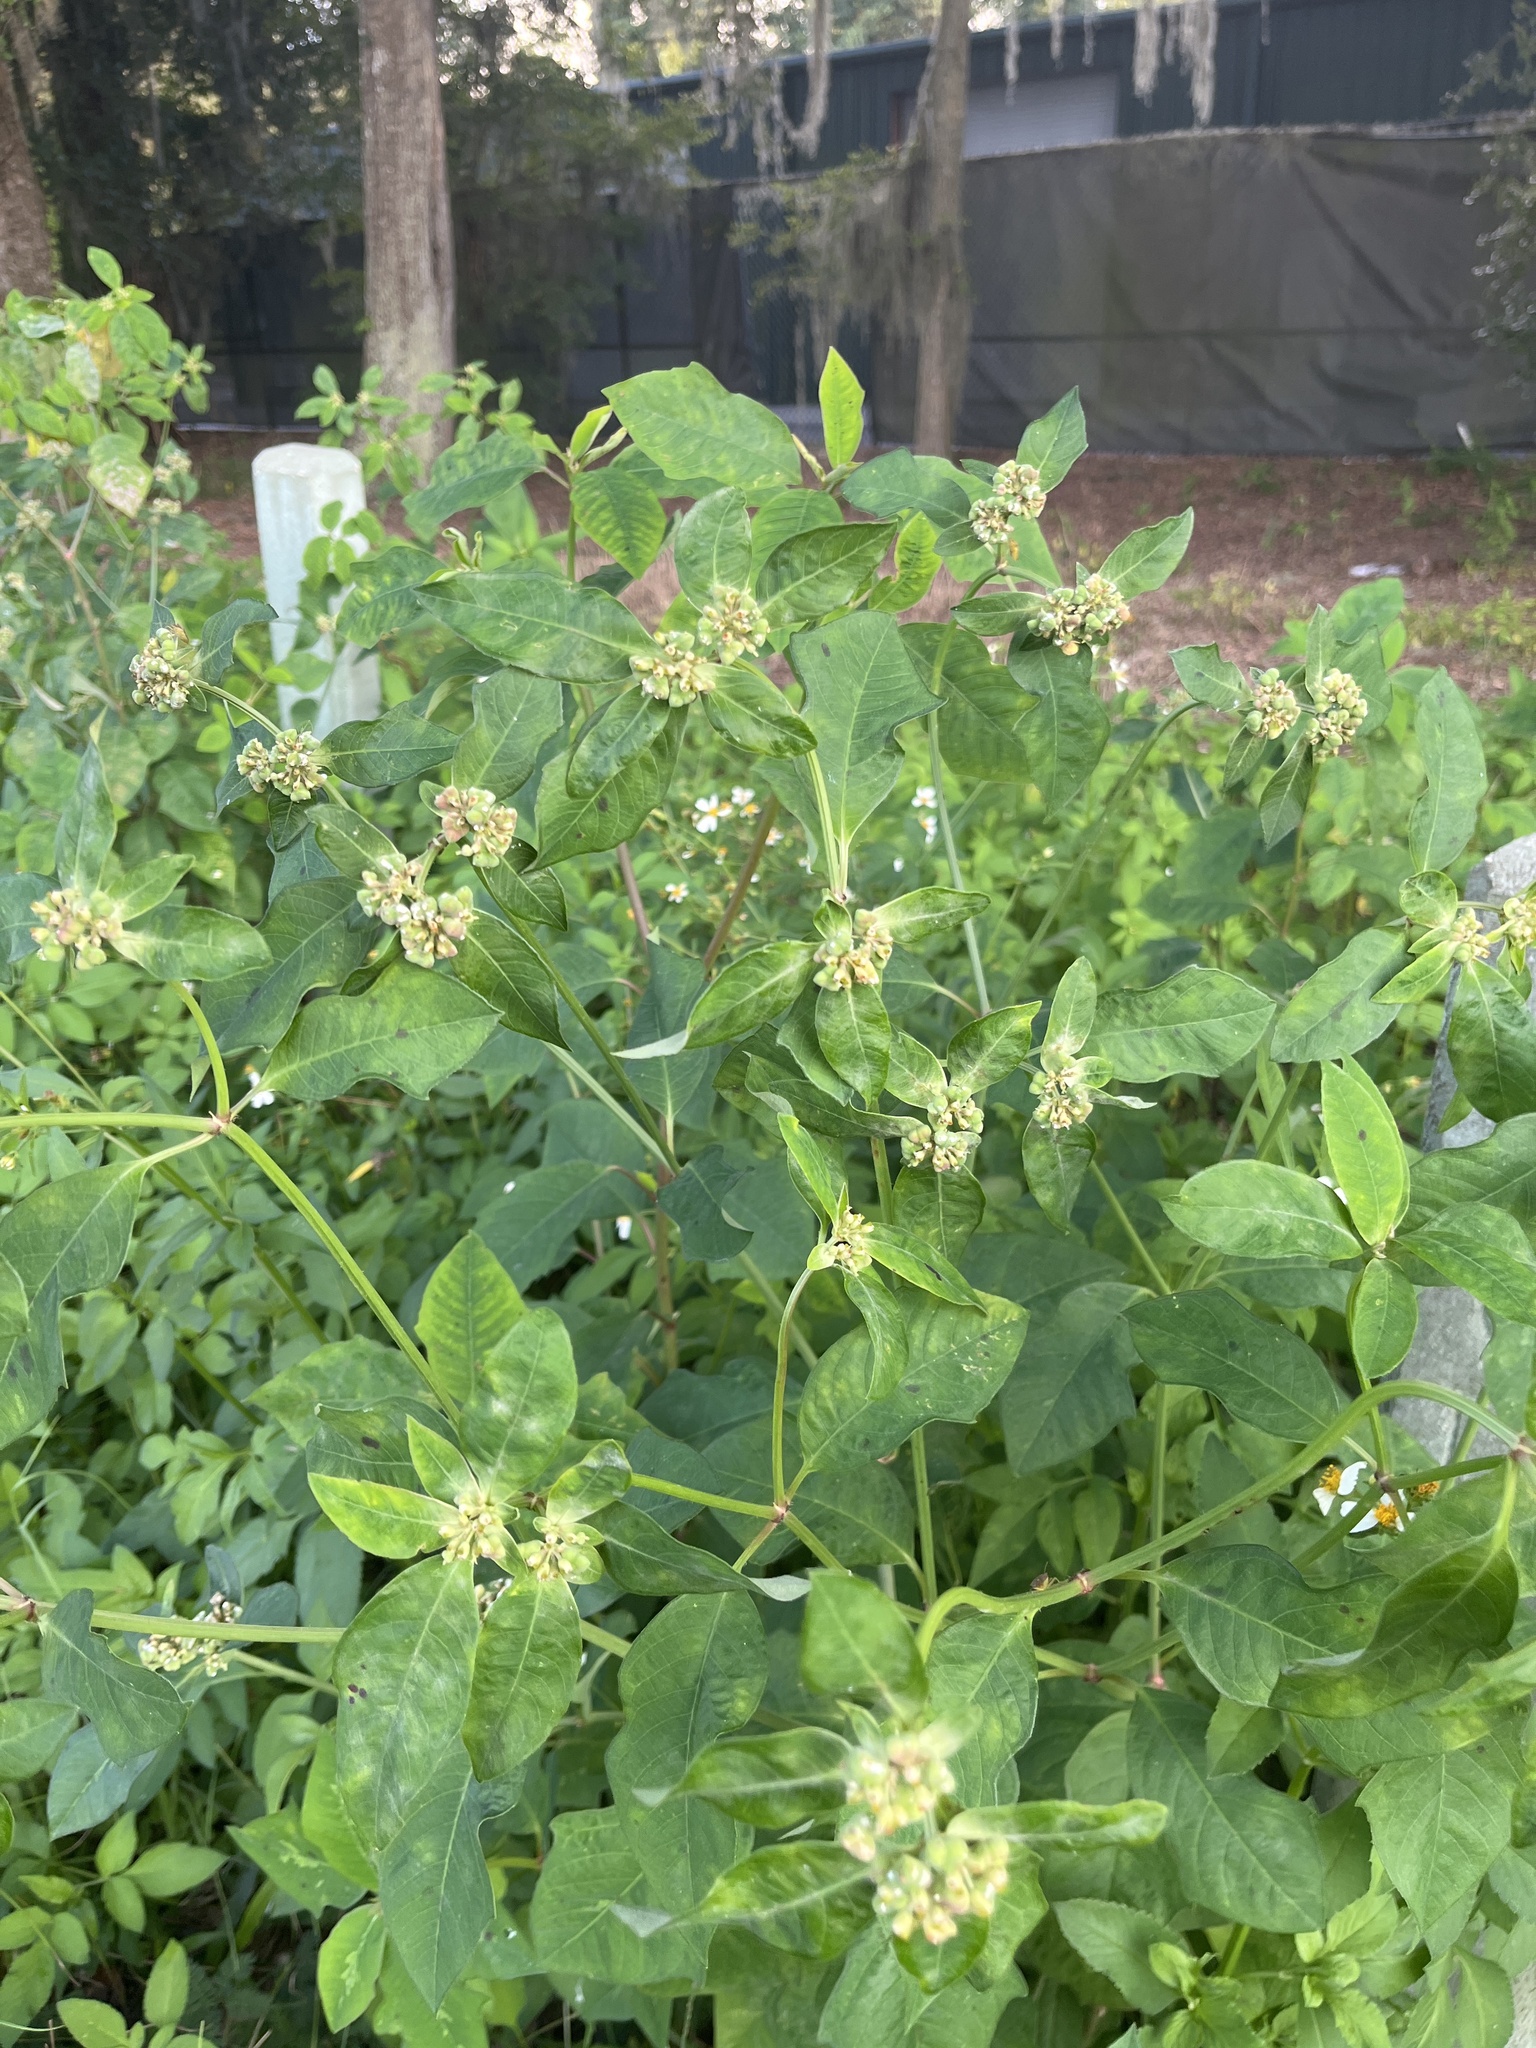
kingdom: Plantae
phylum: Tracheophyta
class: Magnoliopsida
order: Malpighiales
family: Euphorbiaceae
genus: Euphorbia
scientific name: Euphorbia heterophylla
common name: Mexican fireplant
